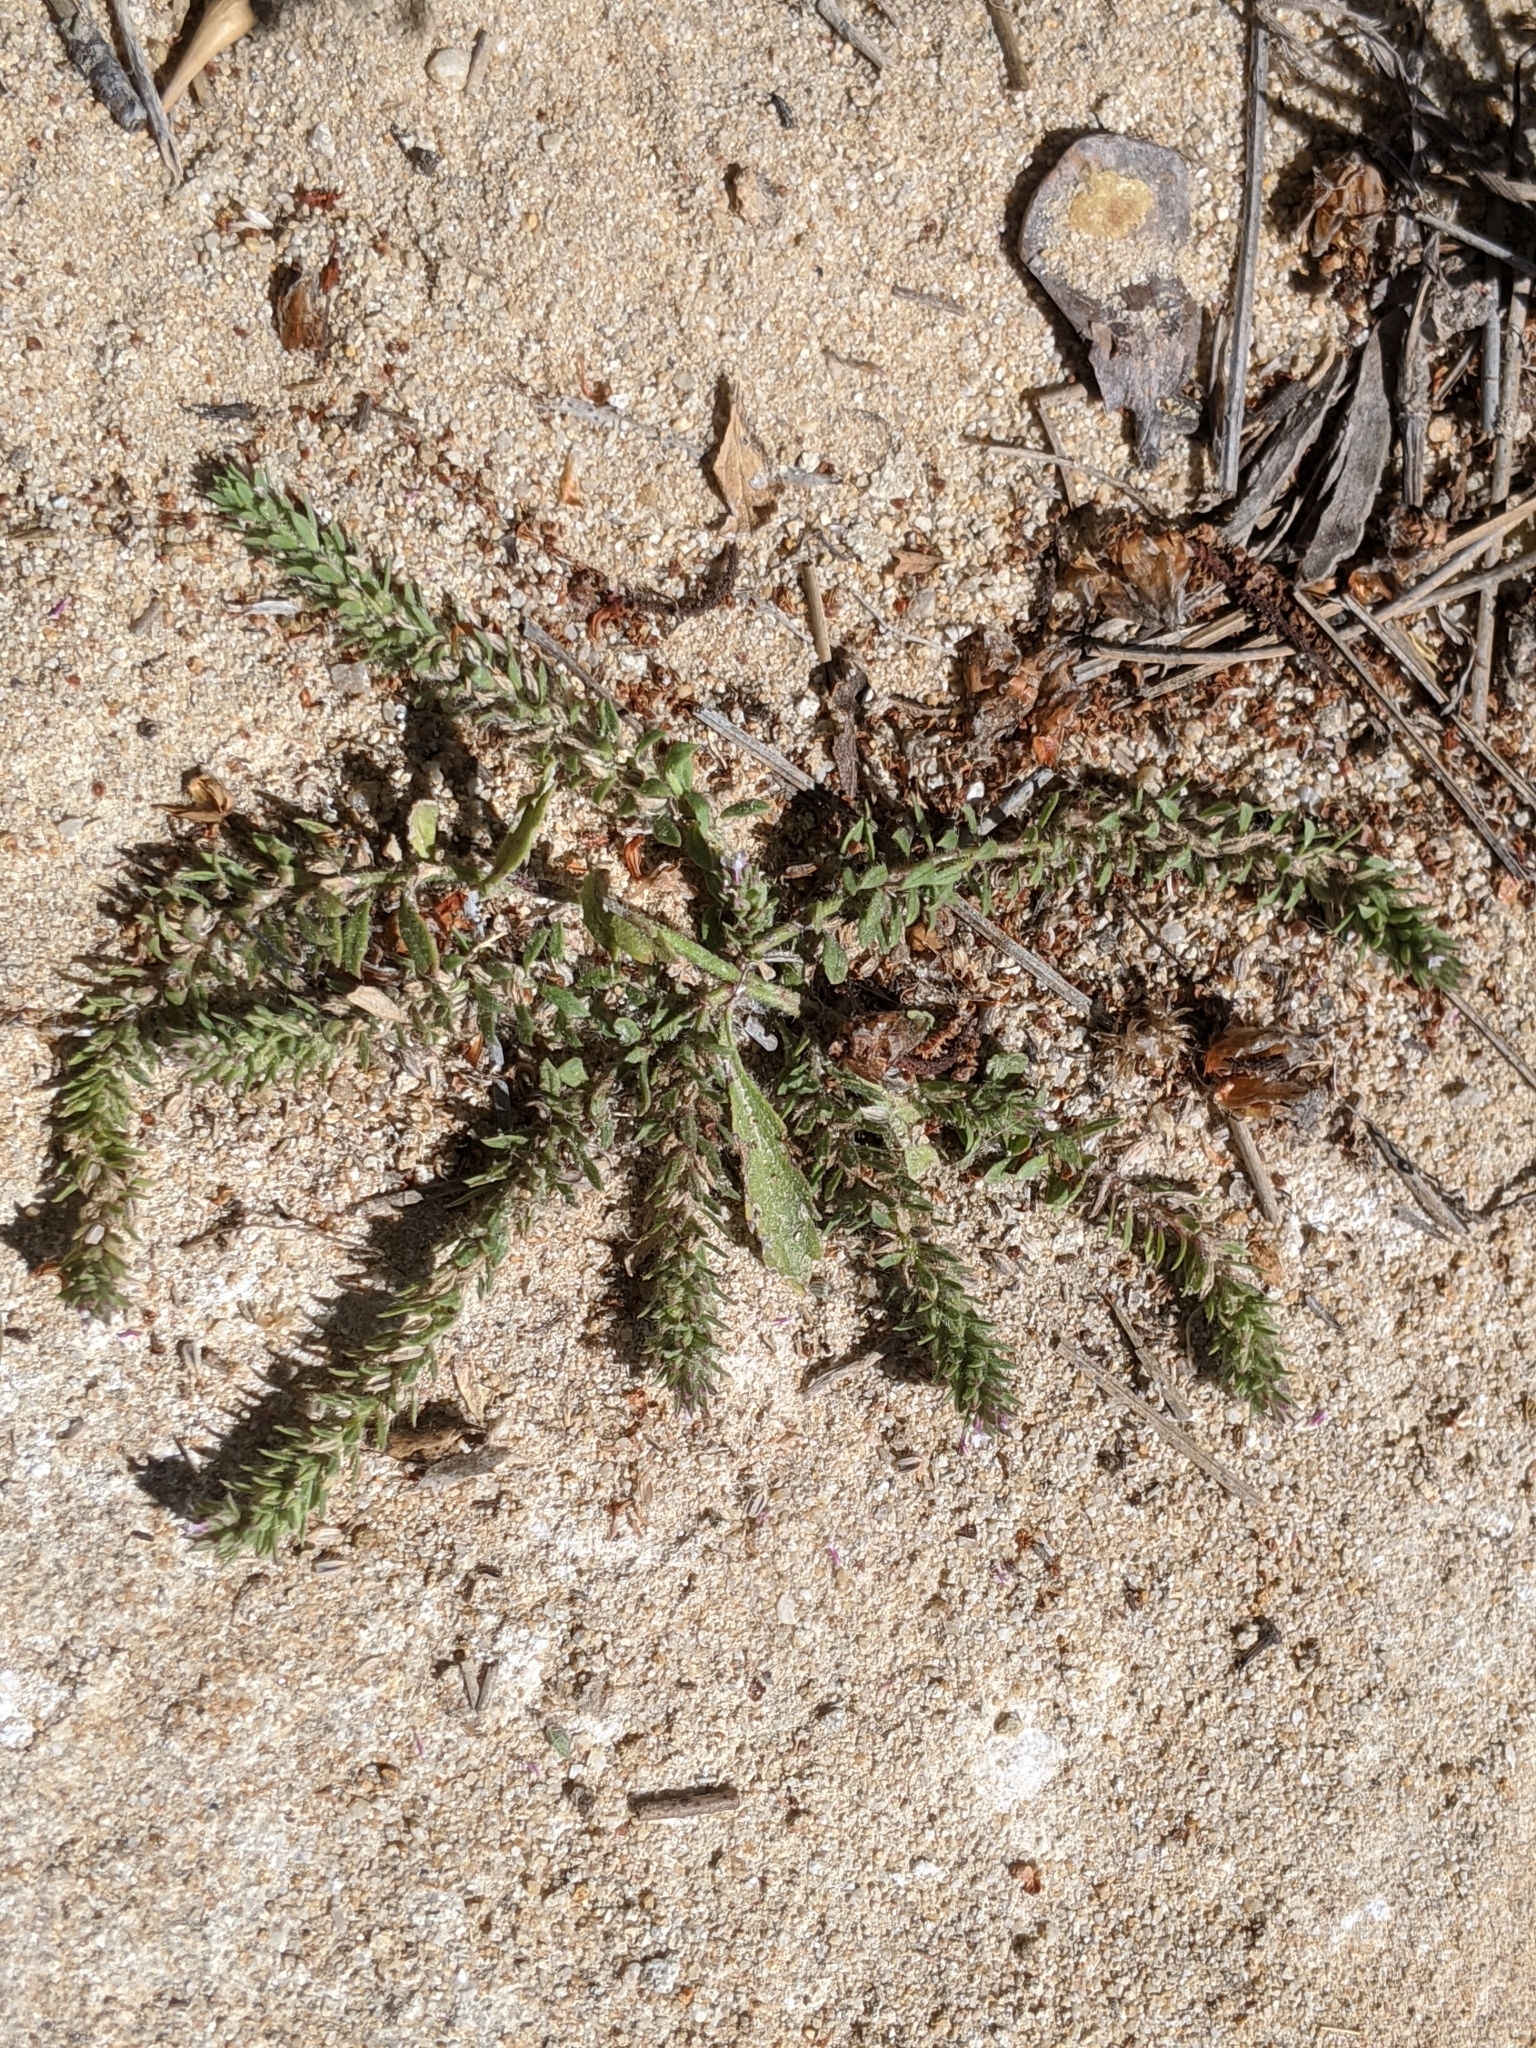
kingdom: Plantae
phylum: Tracheophyta
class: Magnoliopsida
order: Lamiales
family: Verbenaceae
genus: Verbena
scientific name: Verbena bracteata
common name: Bracted vervain
